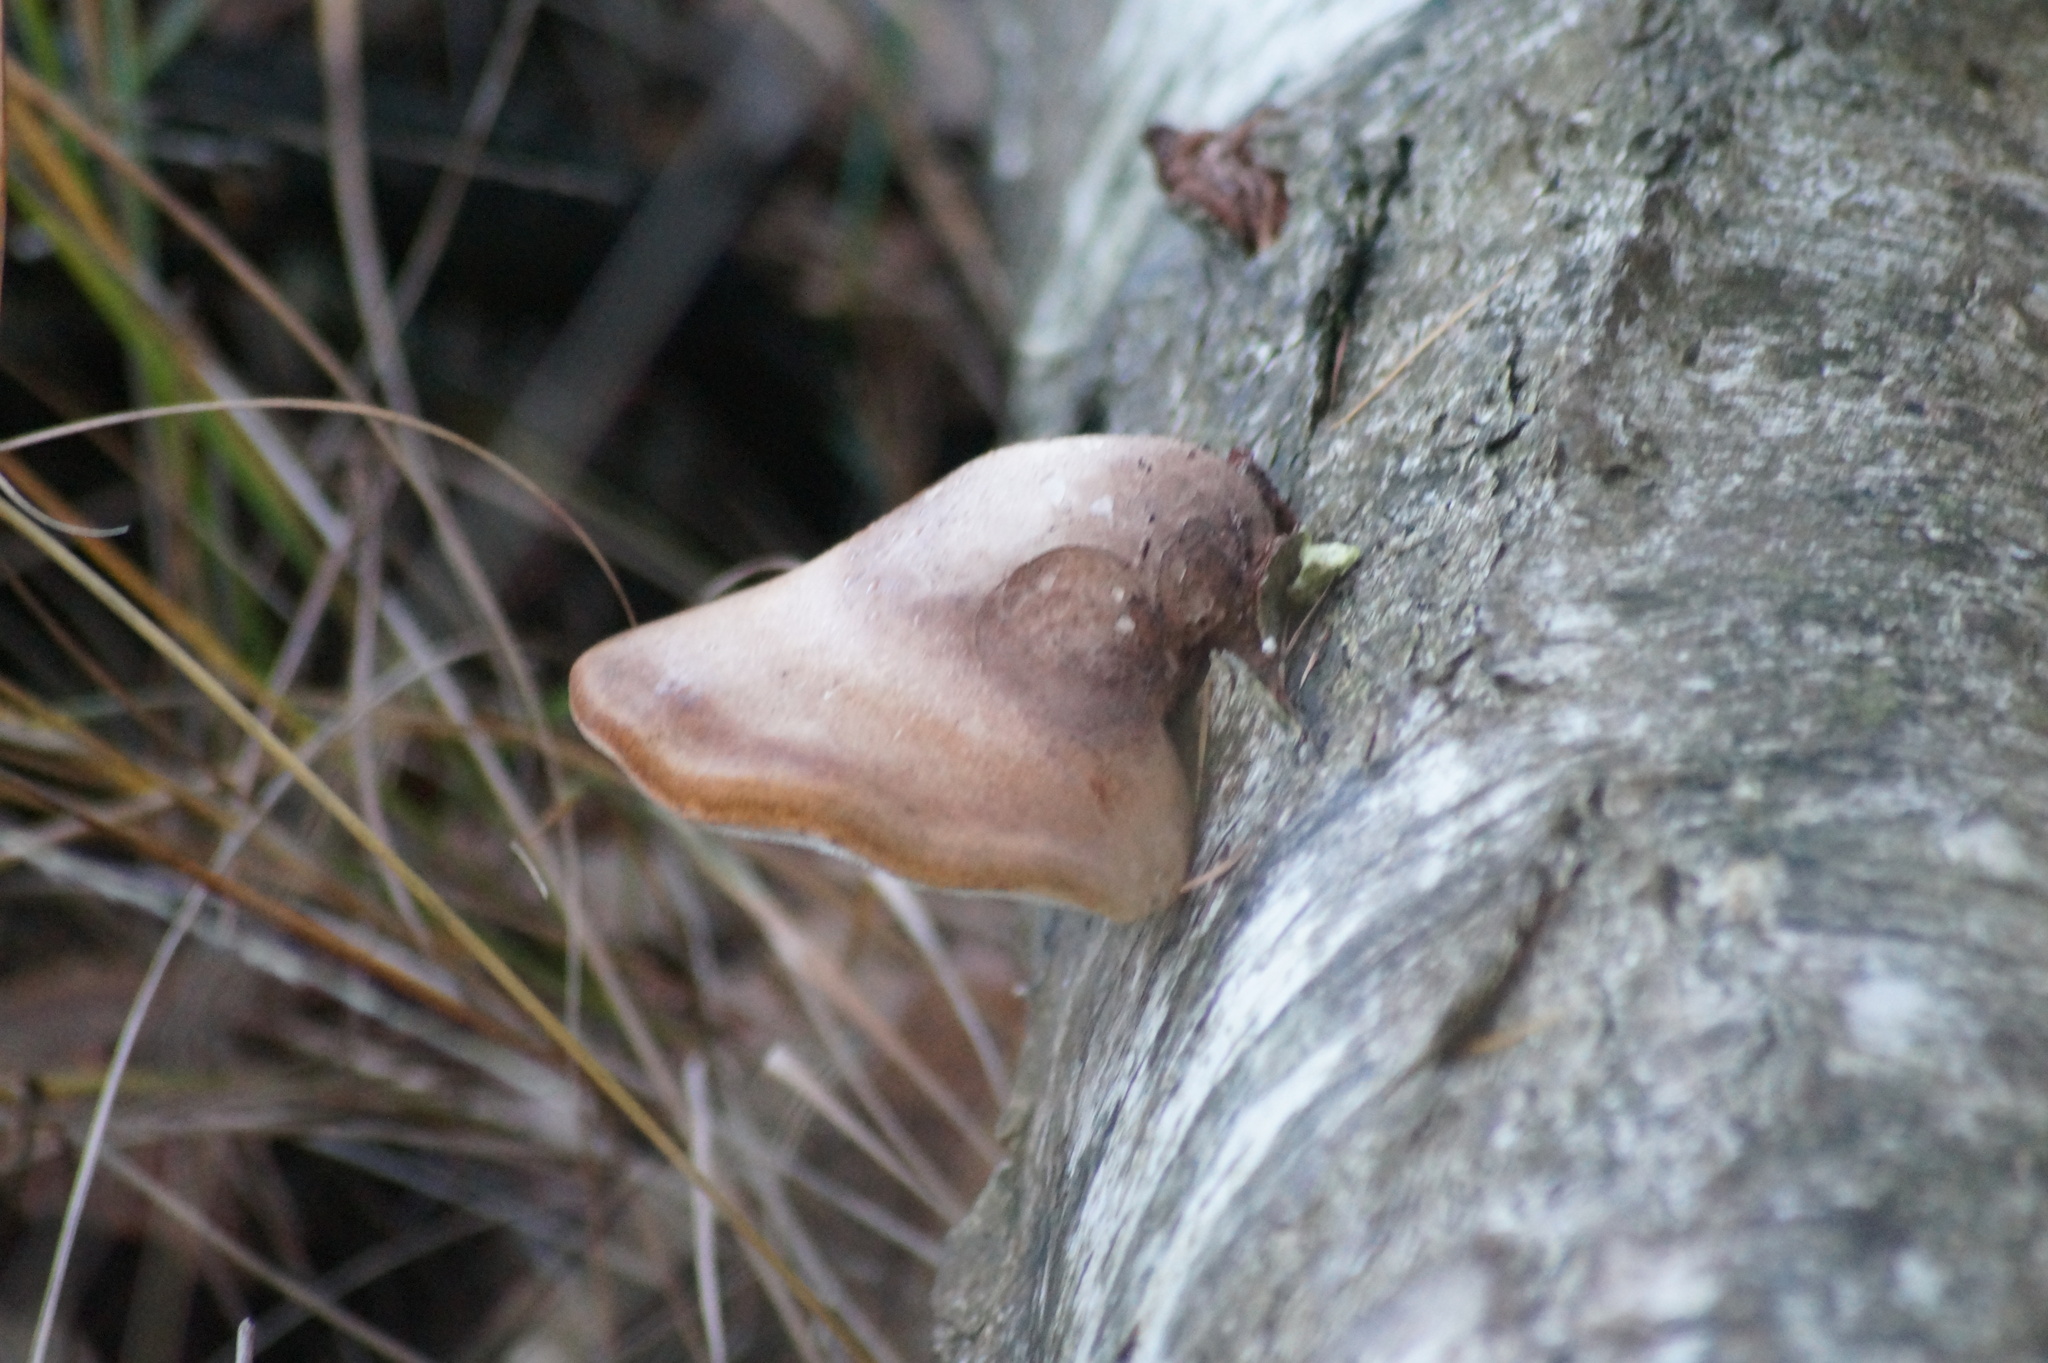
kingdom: Fungi
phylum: Basidiomycota
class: Agaricomycetes
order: Polyporales
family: Fomitopsidaceae
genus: Fomitopsis
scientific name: Fomitopsis betulina
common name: Birch polypore
